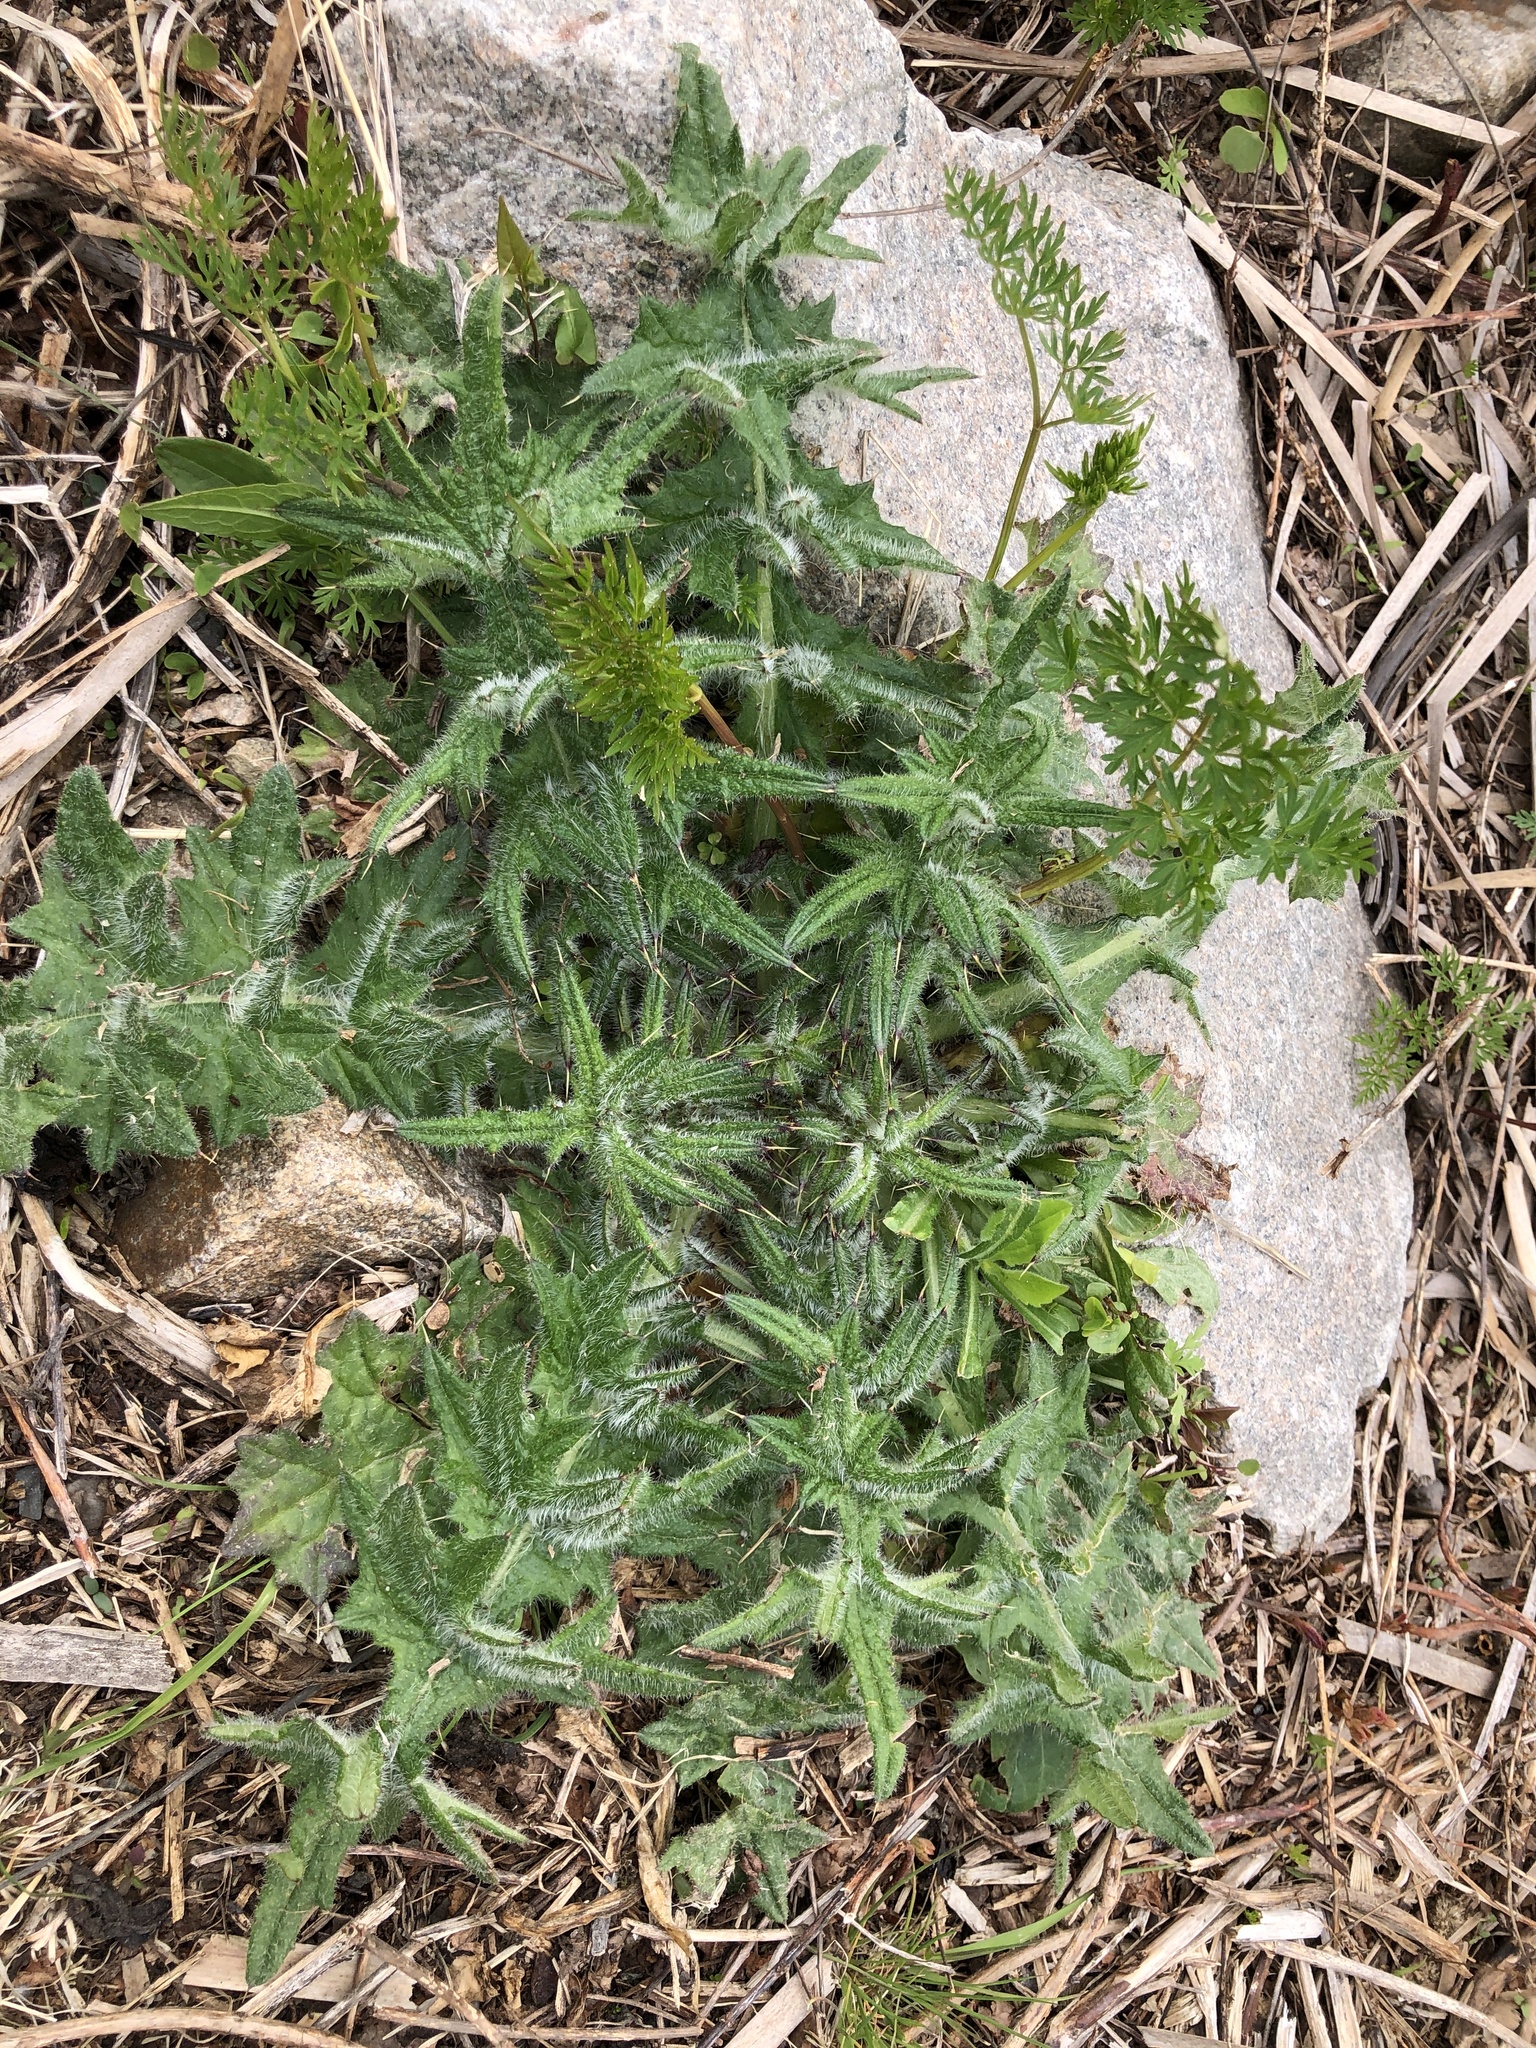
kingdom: Plantae
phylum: Tracheophyta
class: Magnoliopsida
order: Asterales
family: Asteraceae
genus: Cirsium
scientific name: Cirsium vulgare
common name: Bull thistle
